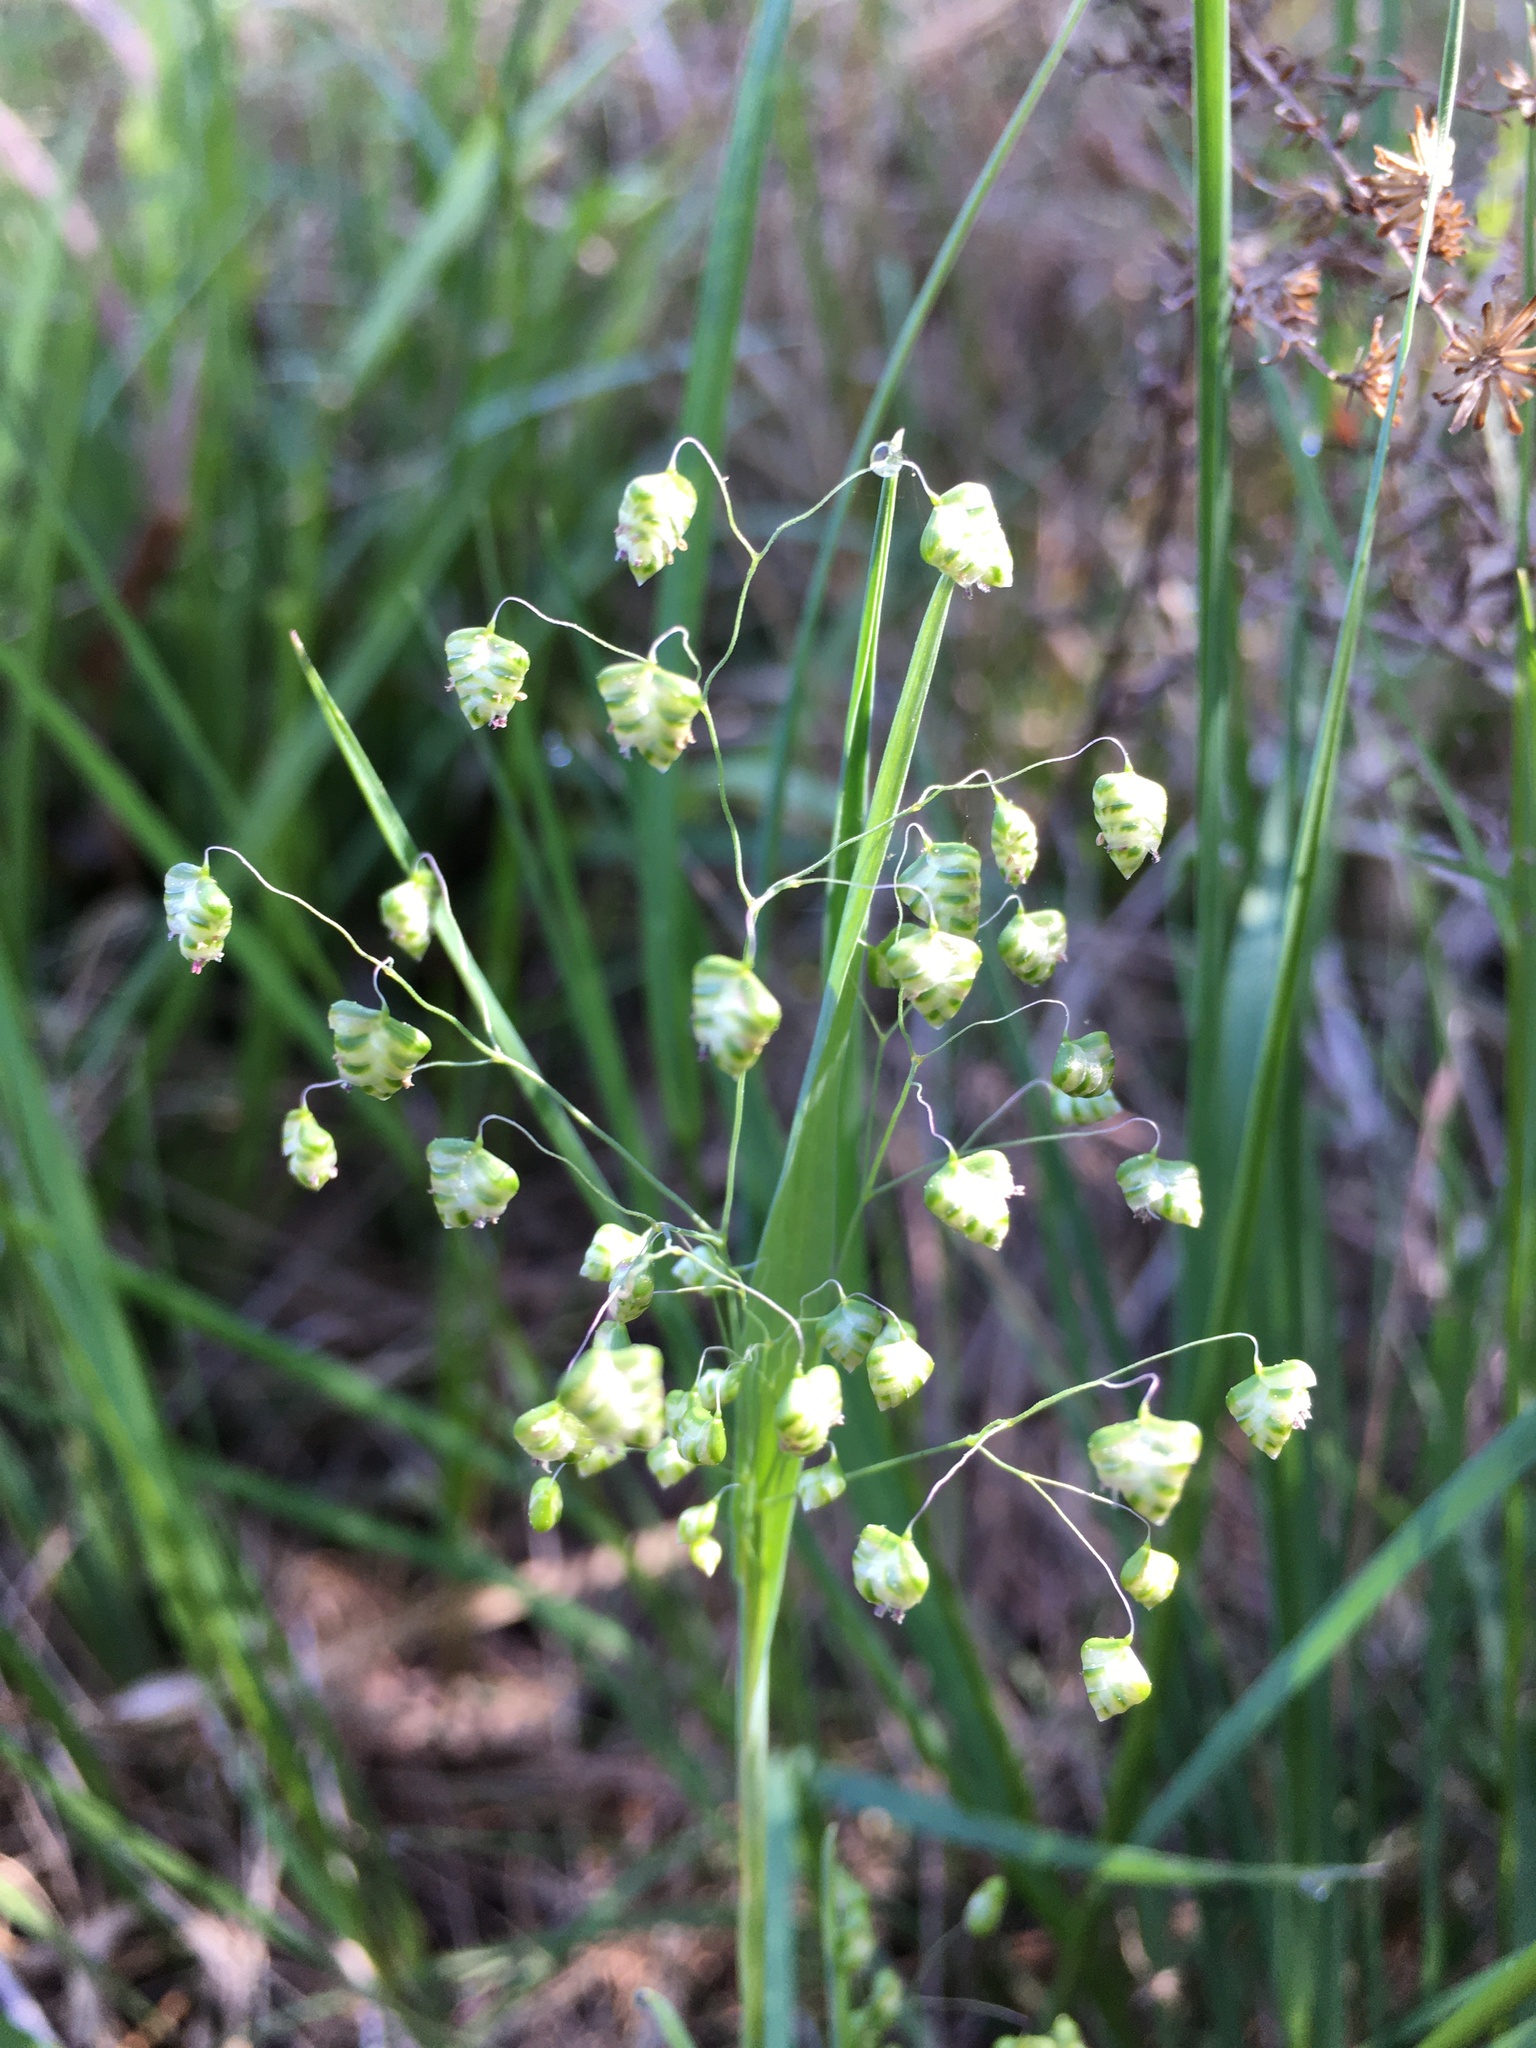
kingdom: Plantae
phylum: Tracheophyta
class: Liliopsida
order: Poales
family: Poaceae
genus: Briza
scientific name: Briza minor
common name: Lesser quaking-grass
